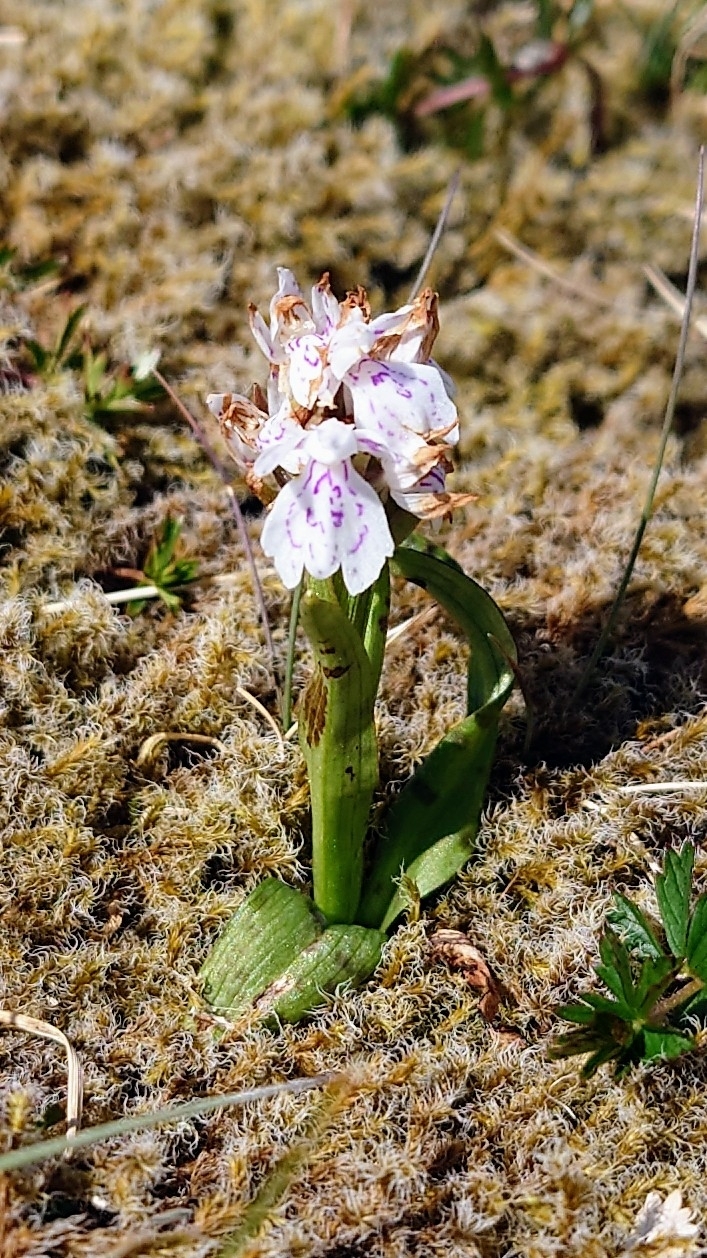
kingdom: Plantae
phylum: Tracheophyta
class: Liliopsida
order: Asparagales
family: Orchidaceae
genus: Dactylorhiza
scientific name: Dactylorhiza maculata
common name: Heath spotted-orchid
